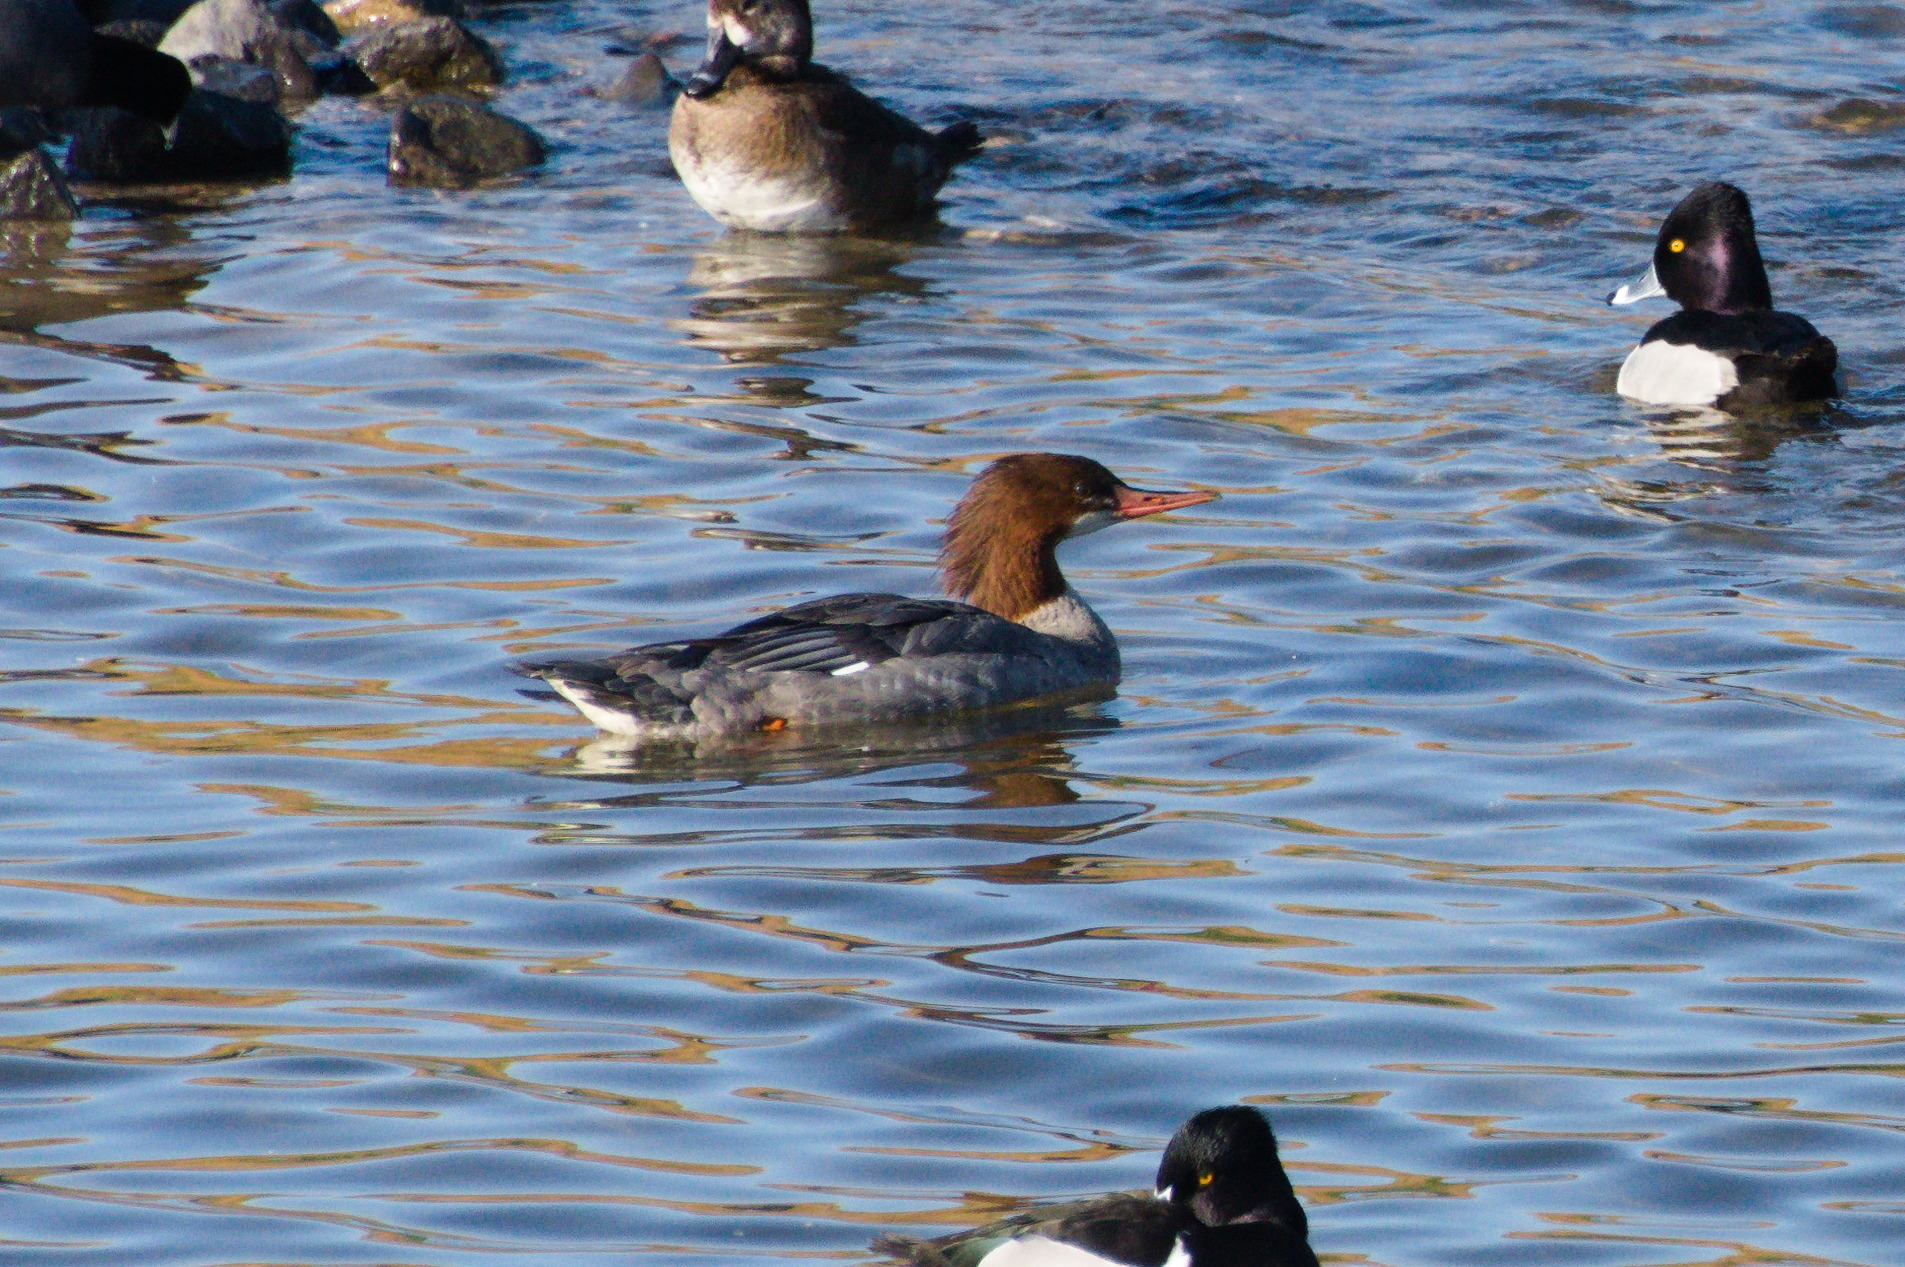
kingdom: Animalia
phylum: Chordata
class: Aves
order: Anseriformes
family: Anatidae
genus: Mergus
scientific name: Mergus merganser
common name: Common merganser
